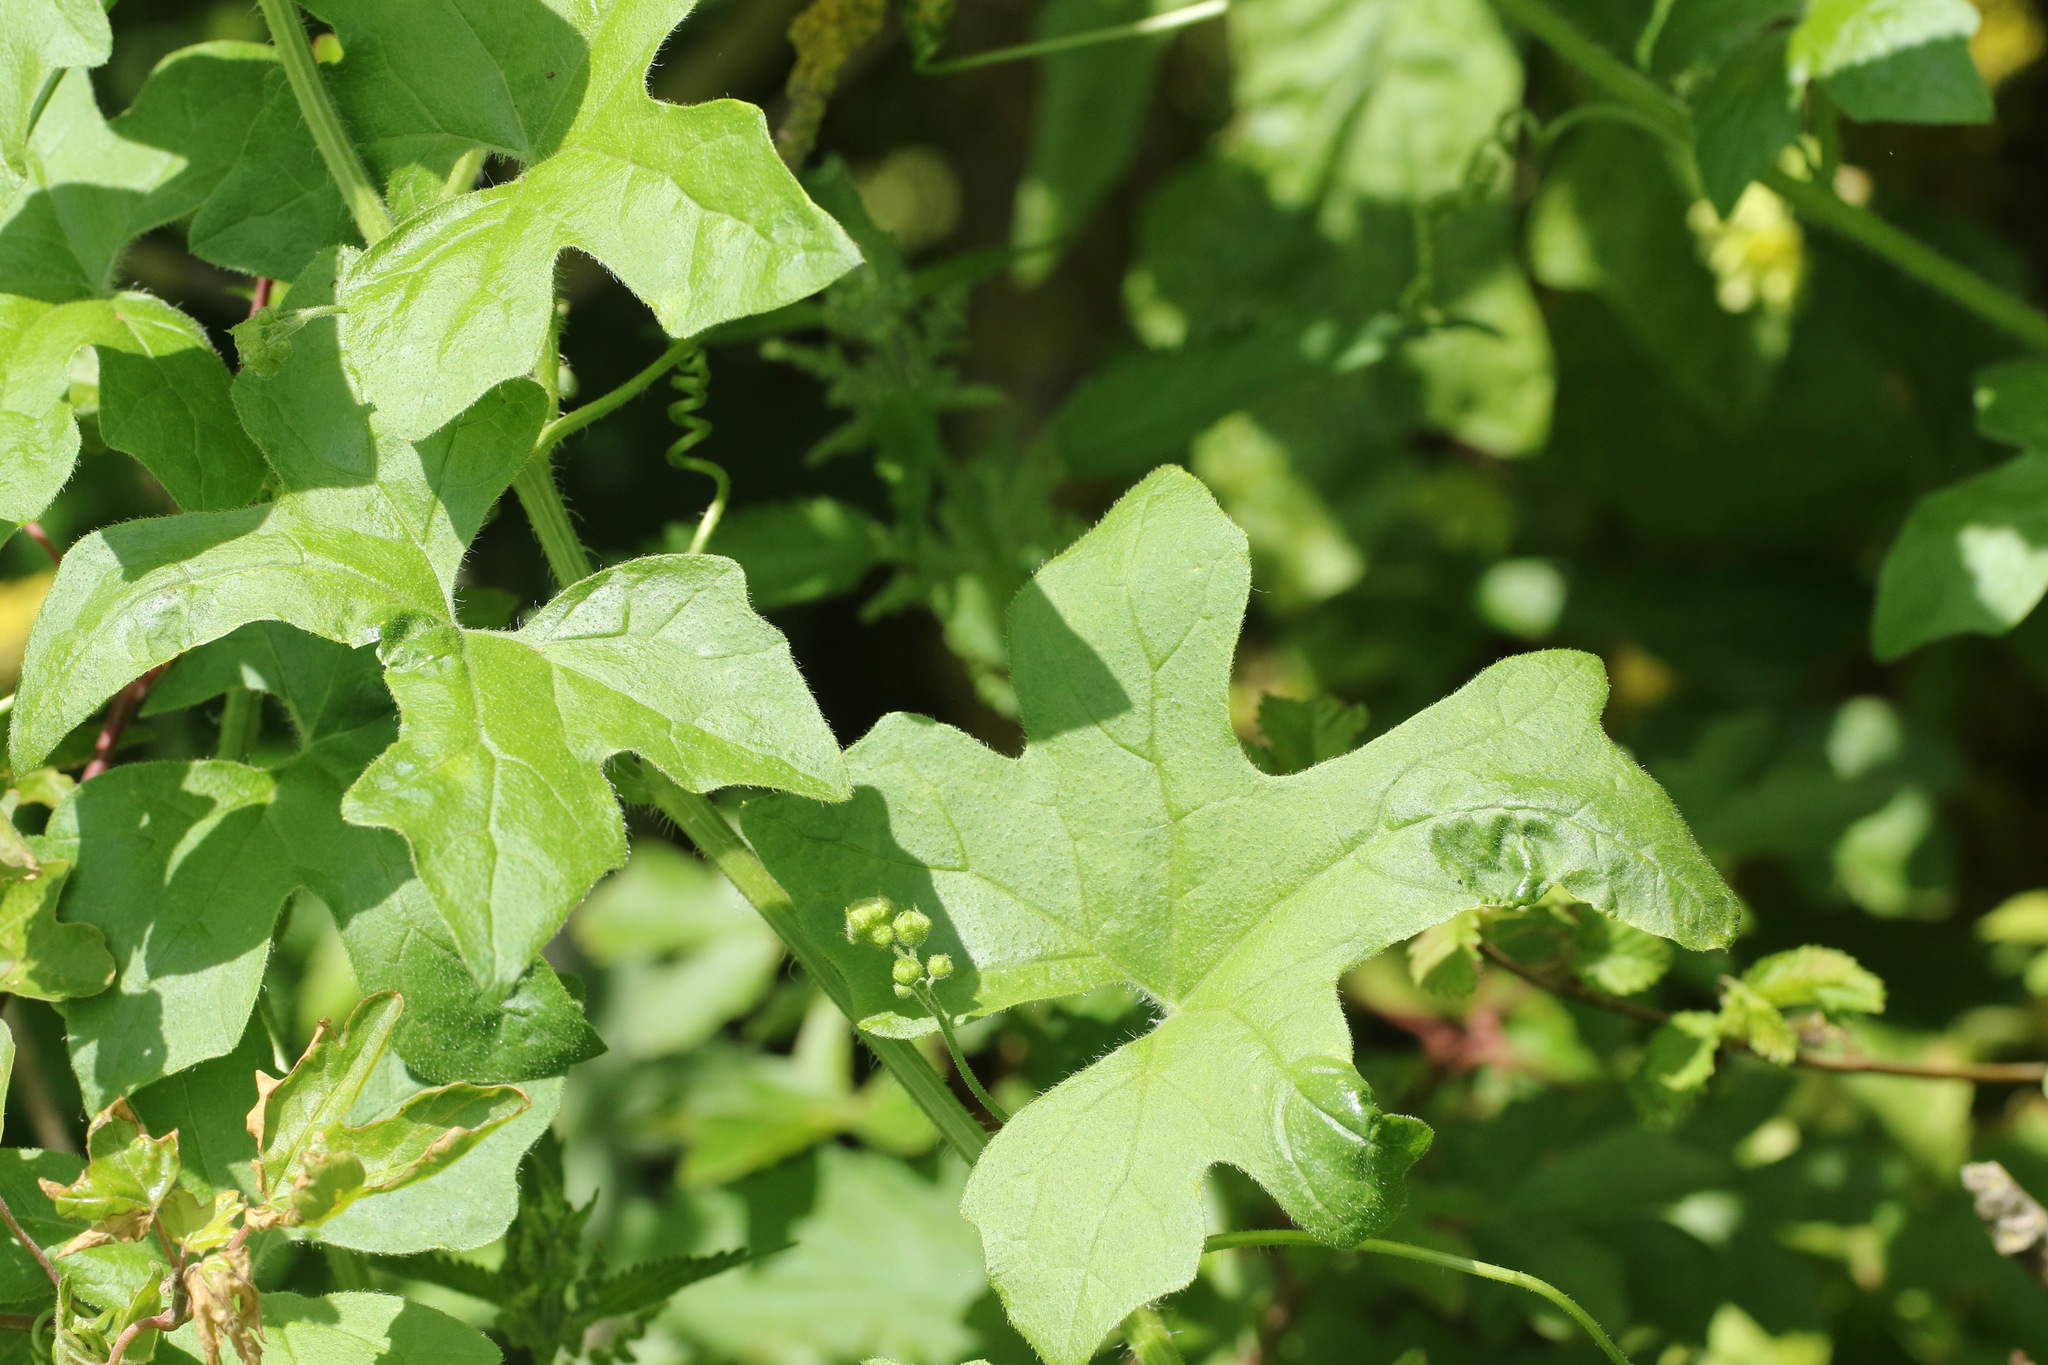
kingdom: Plantae
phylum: Tracheophyta
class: Magnoliopsida
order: Cucurbitales
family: Cucurbitaceae
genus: Bryonia
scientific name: Bryonia cretica
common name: Cretan bryony
